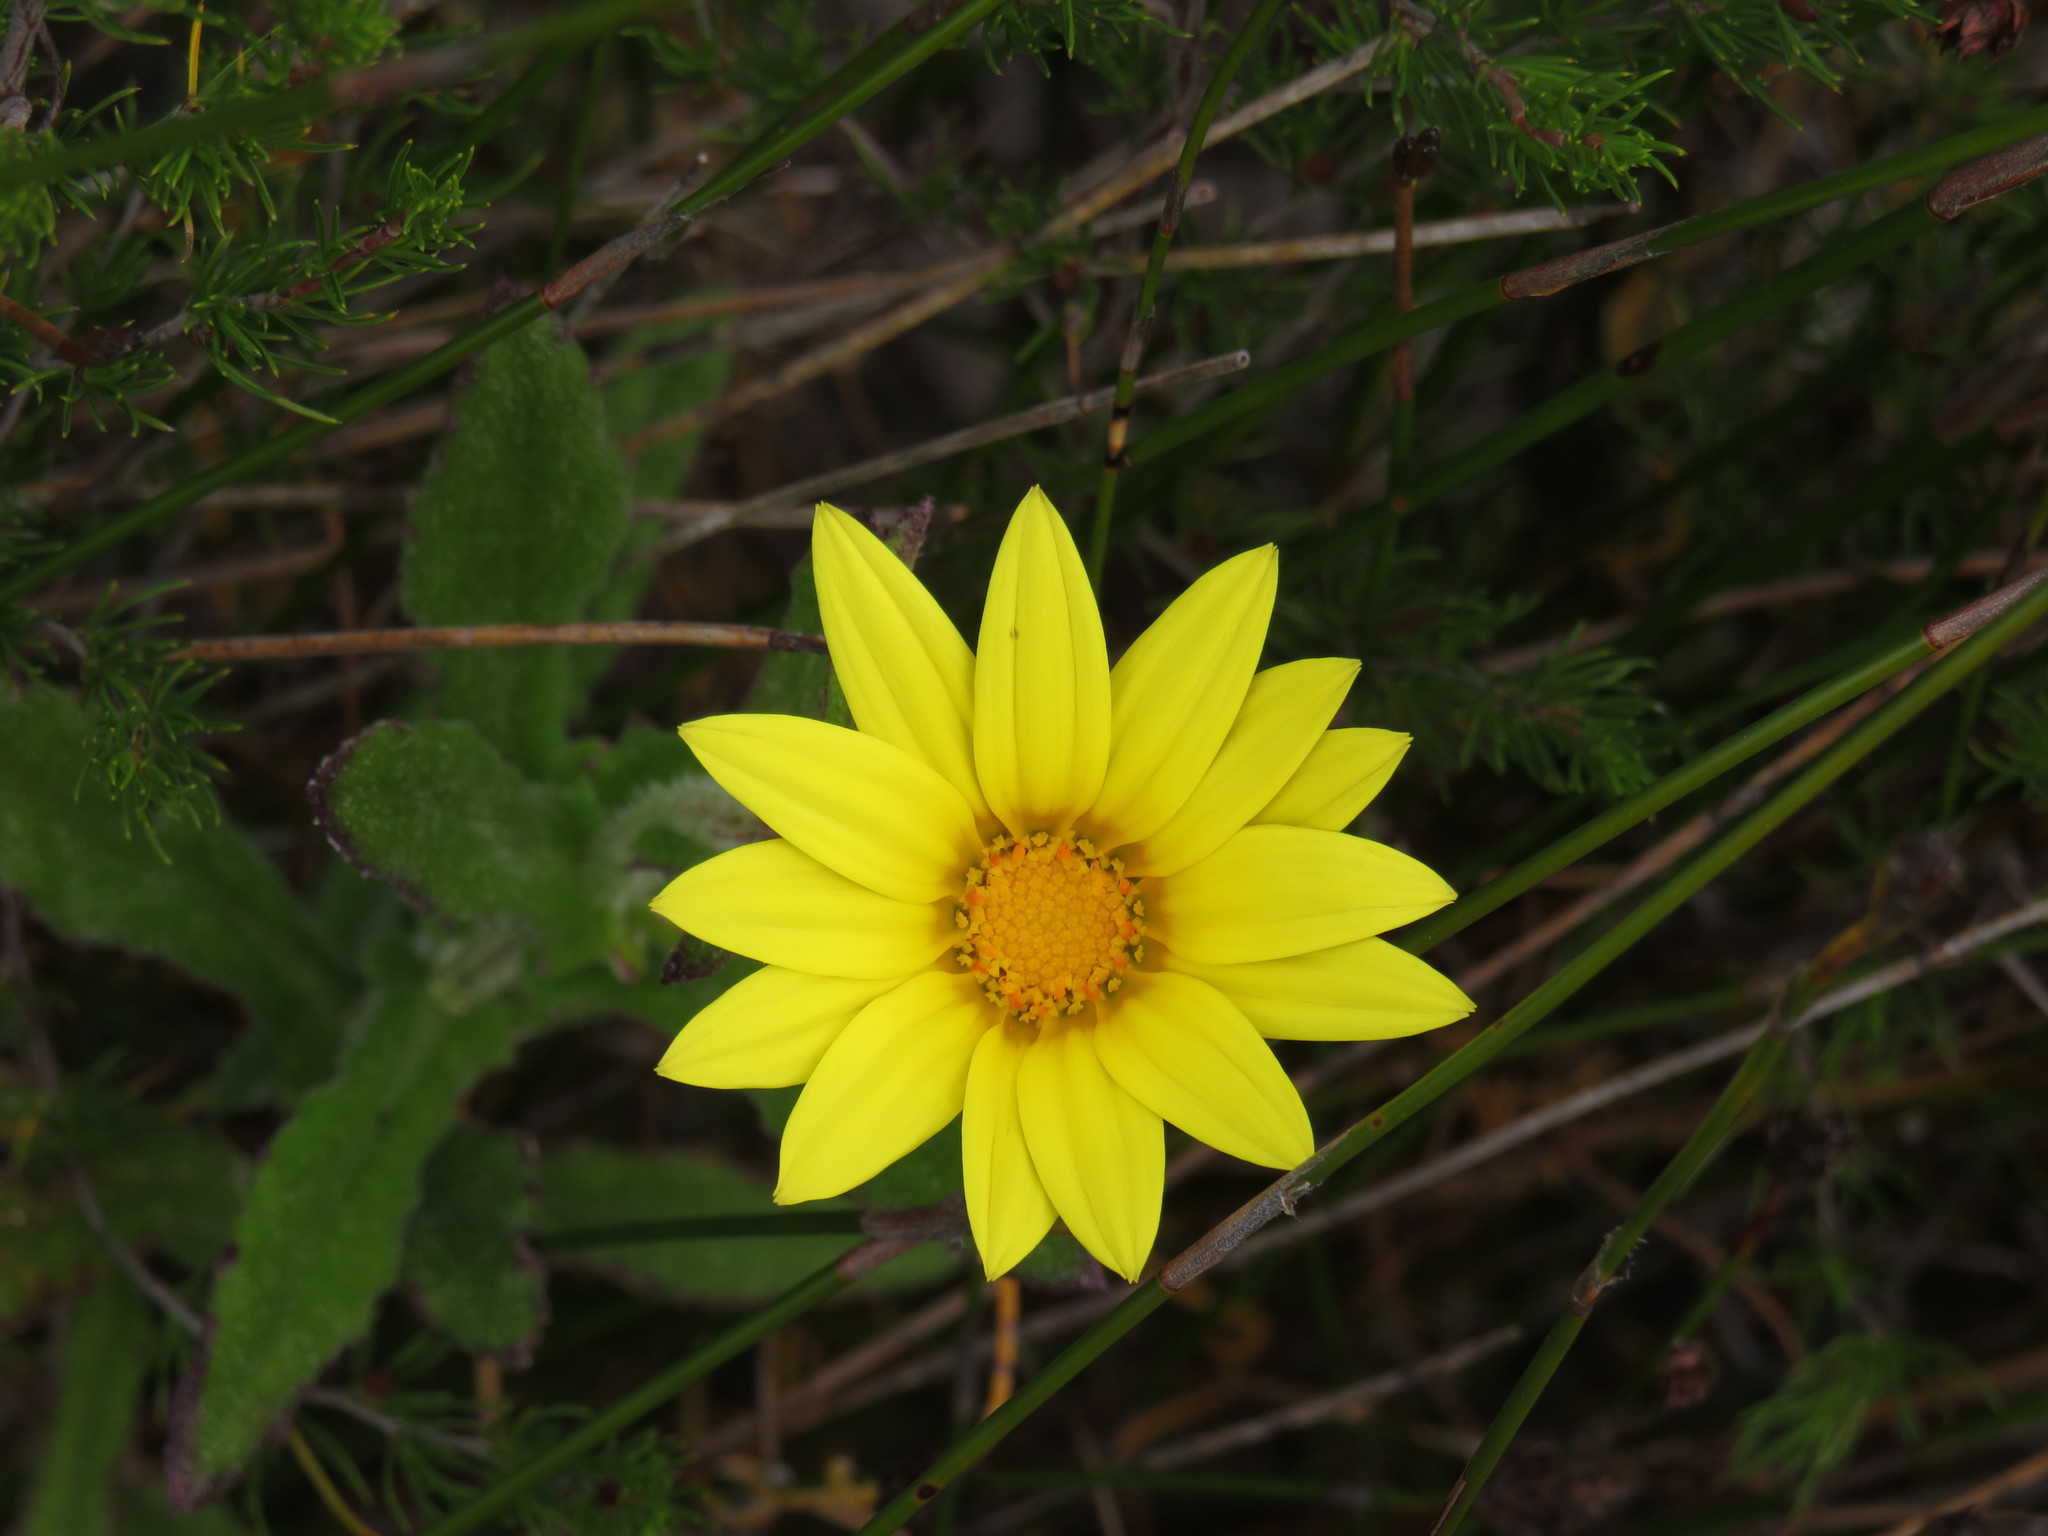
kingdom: Plantae
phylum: Tracheophyta
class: Magnoliopsida
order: Asterales
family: Asteraceae
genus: Arctotis
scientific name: Arctotis scabra
